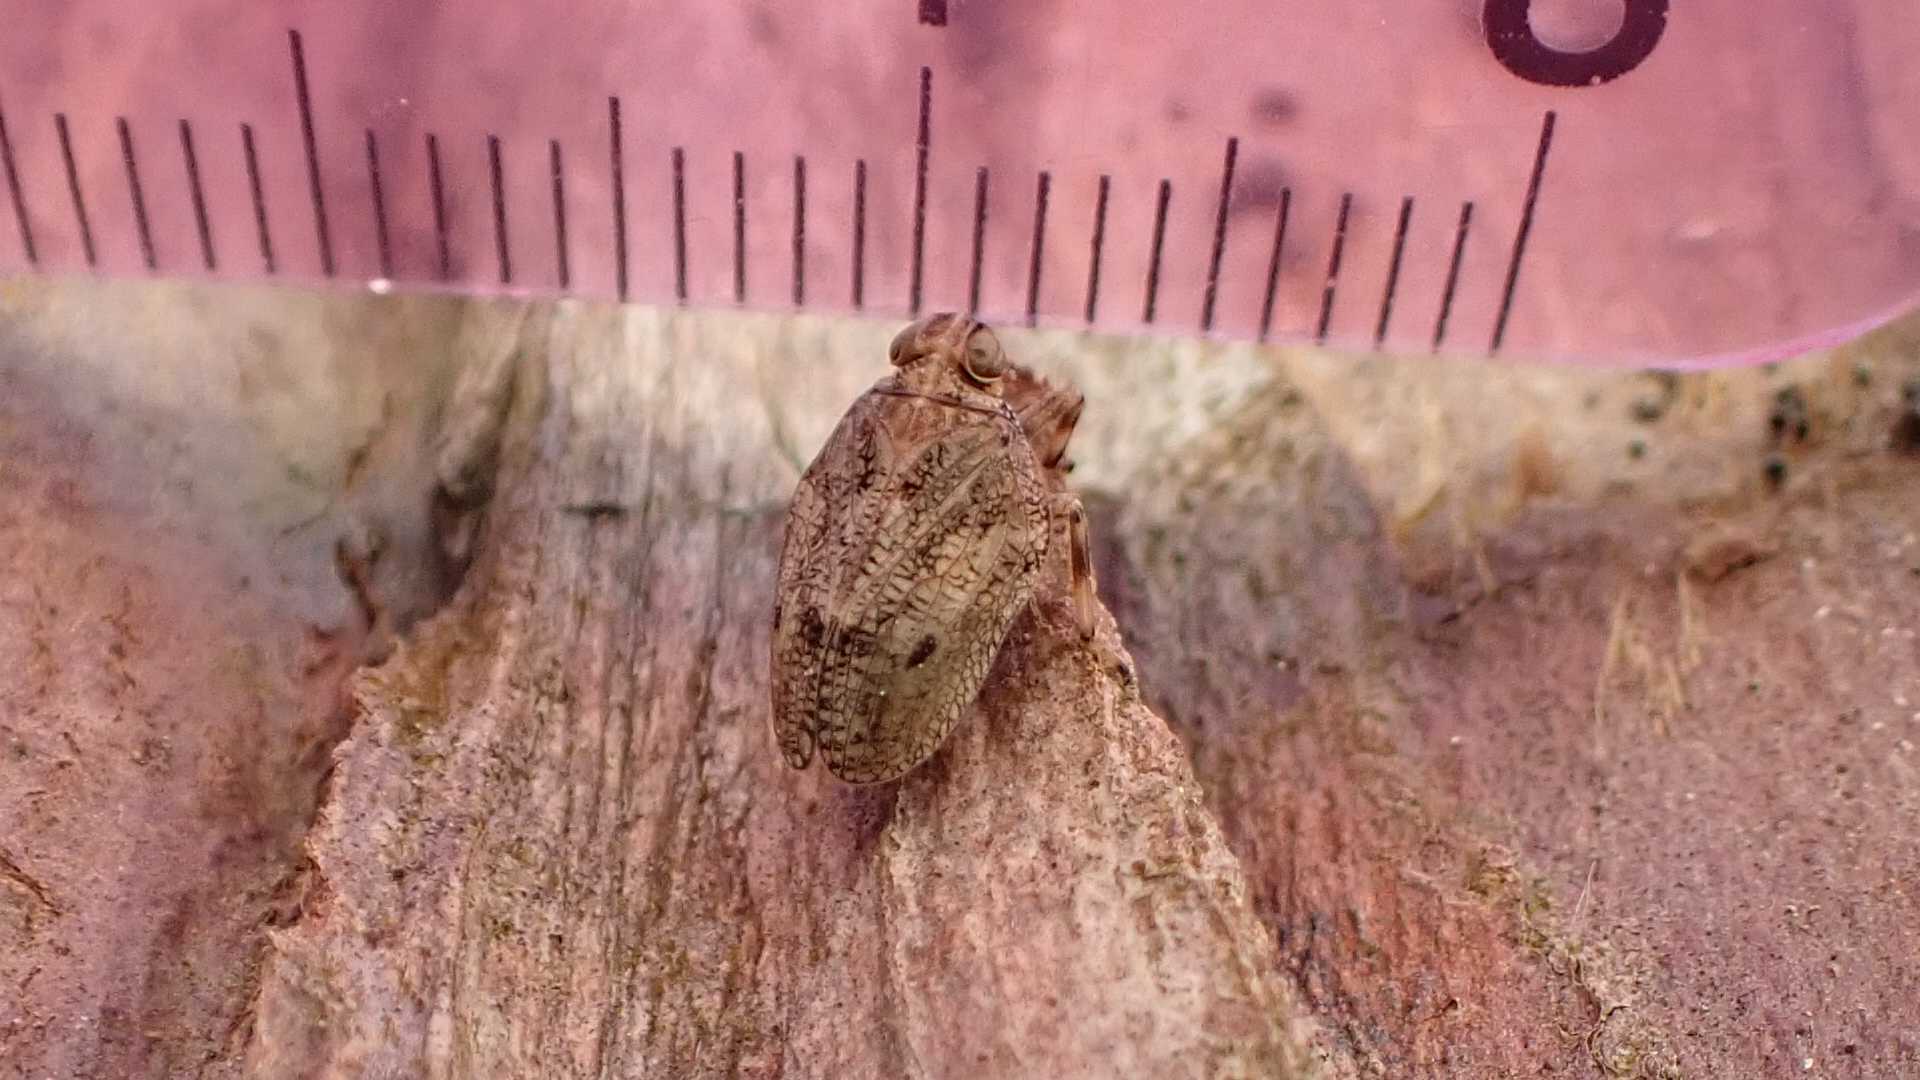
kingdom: Animalia
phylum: Arthropoda
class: Insecta
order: Hemiptera
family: Issidae
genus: Issus
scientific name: Issus coleoptratus
